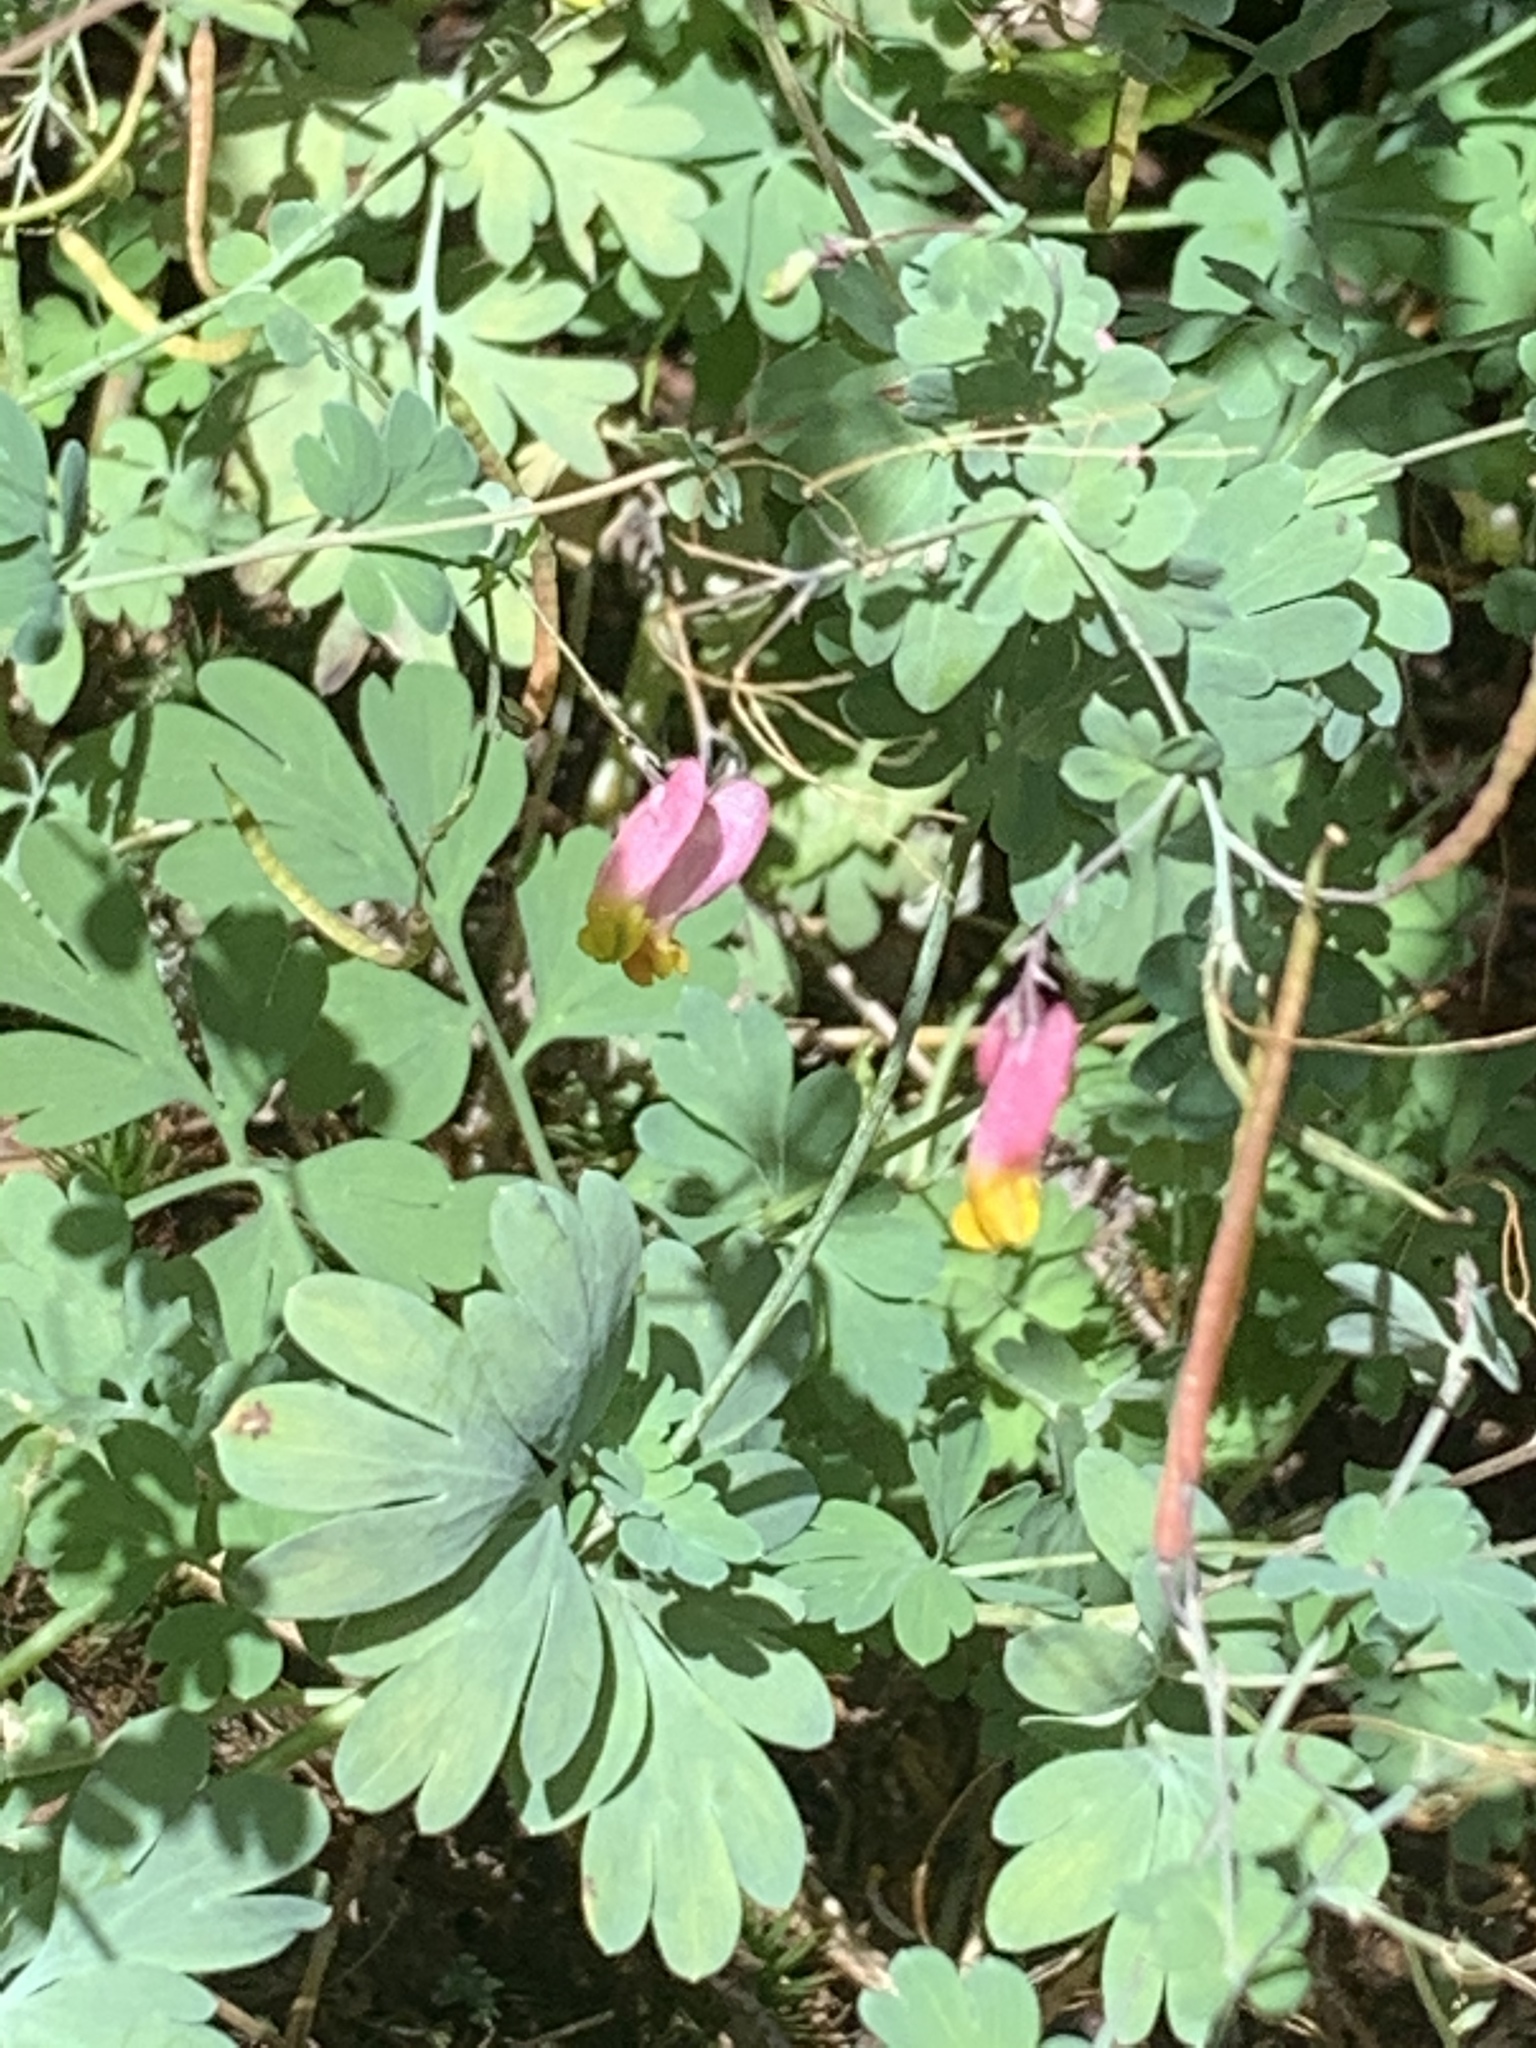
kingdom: Plantae
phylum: Tracheophyta
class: Magnoliopsida
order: Ranunculales
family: Papaveraceae
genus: Capnoides
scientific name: Capnoides sempervirens
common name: Rock harlequin
